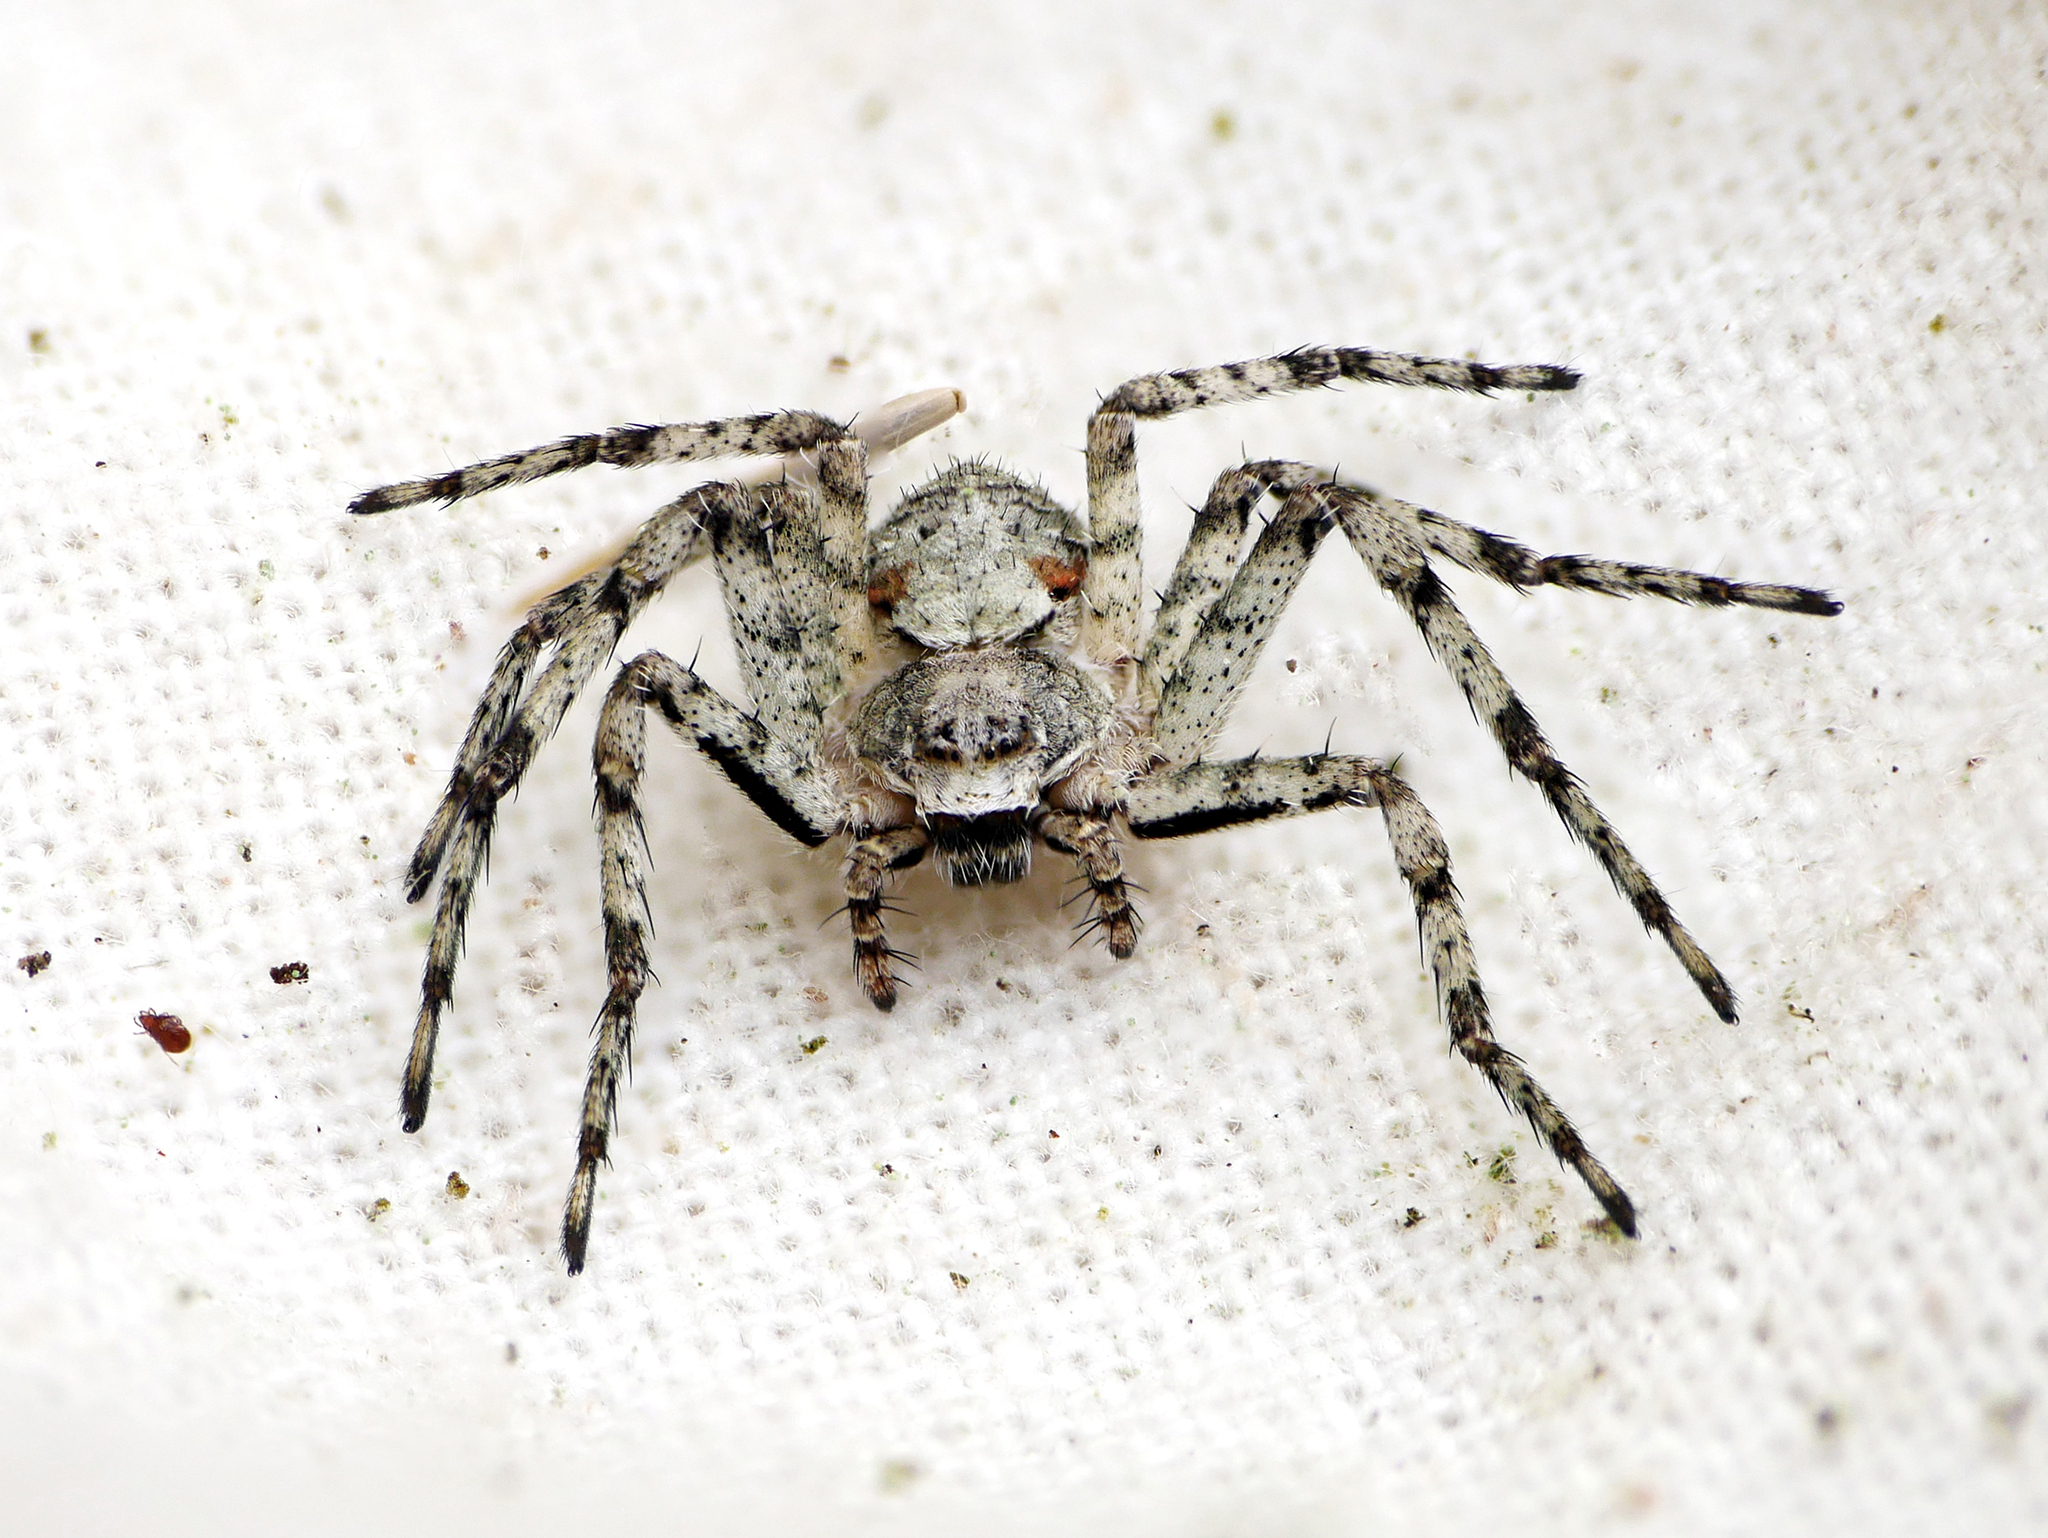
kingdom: Animalia
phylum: Arthropoda
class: Arachnida
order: Araneae
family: Philodromidae
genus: Philodromus
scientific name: Philodromus margaritatus
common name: Lichen running-spider
